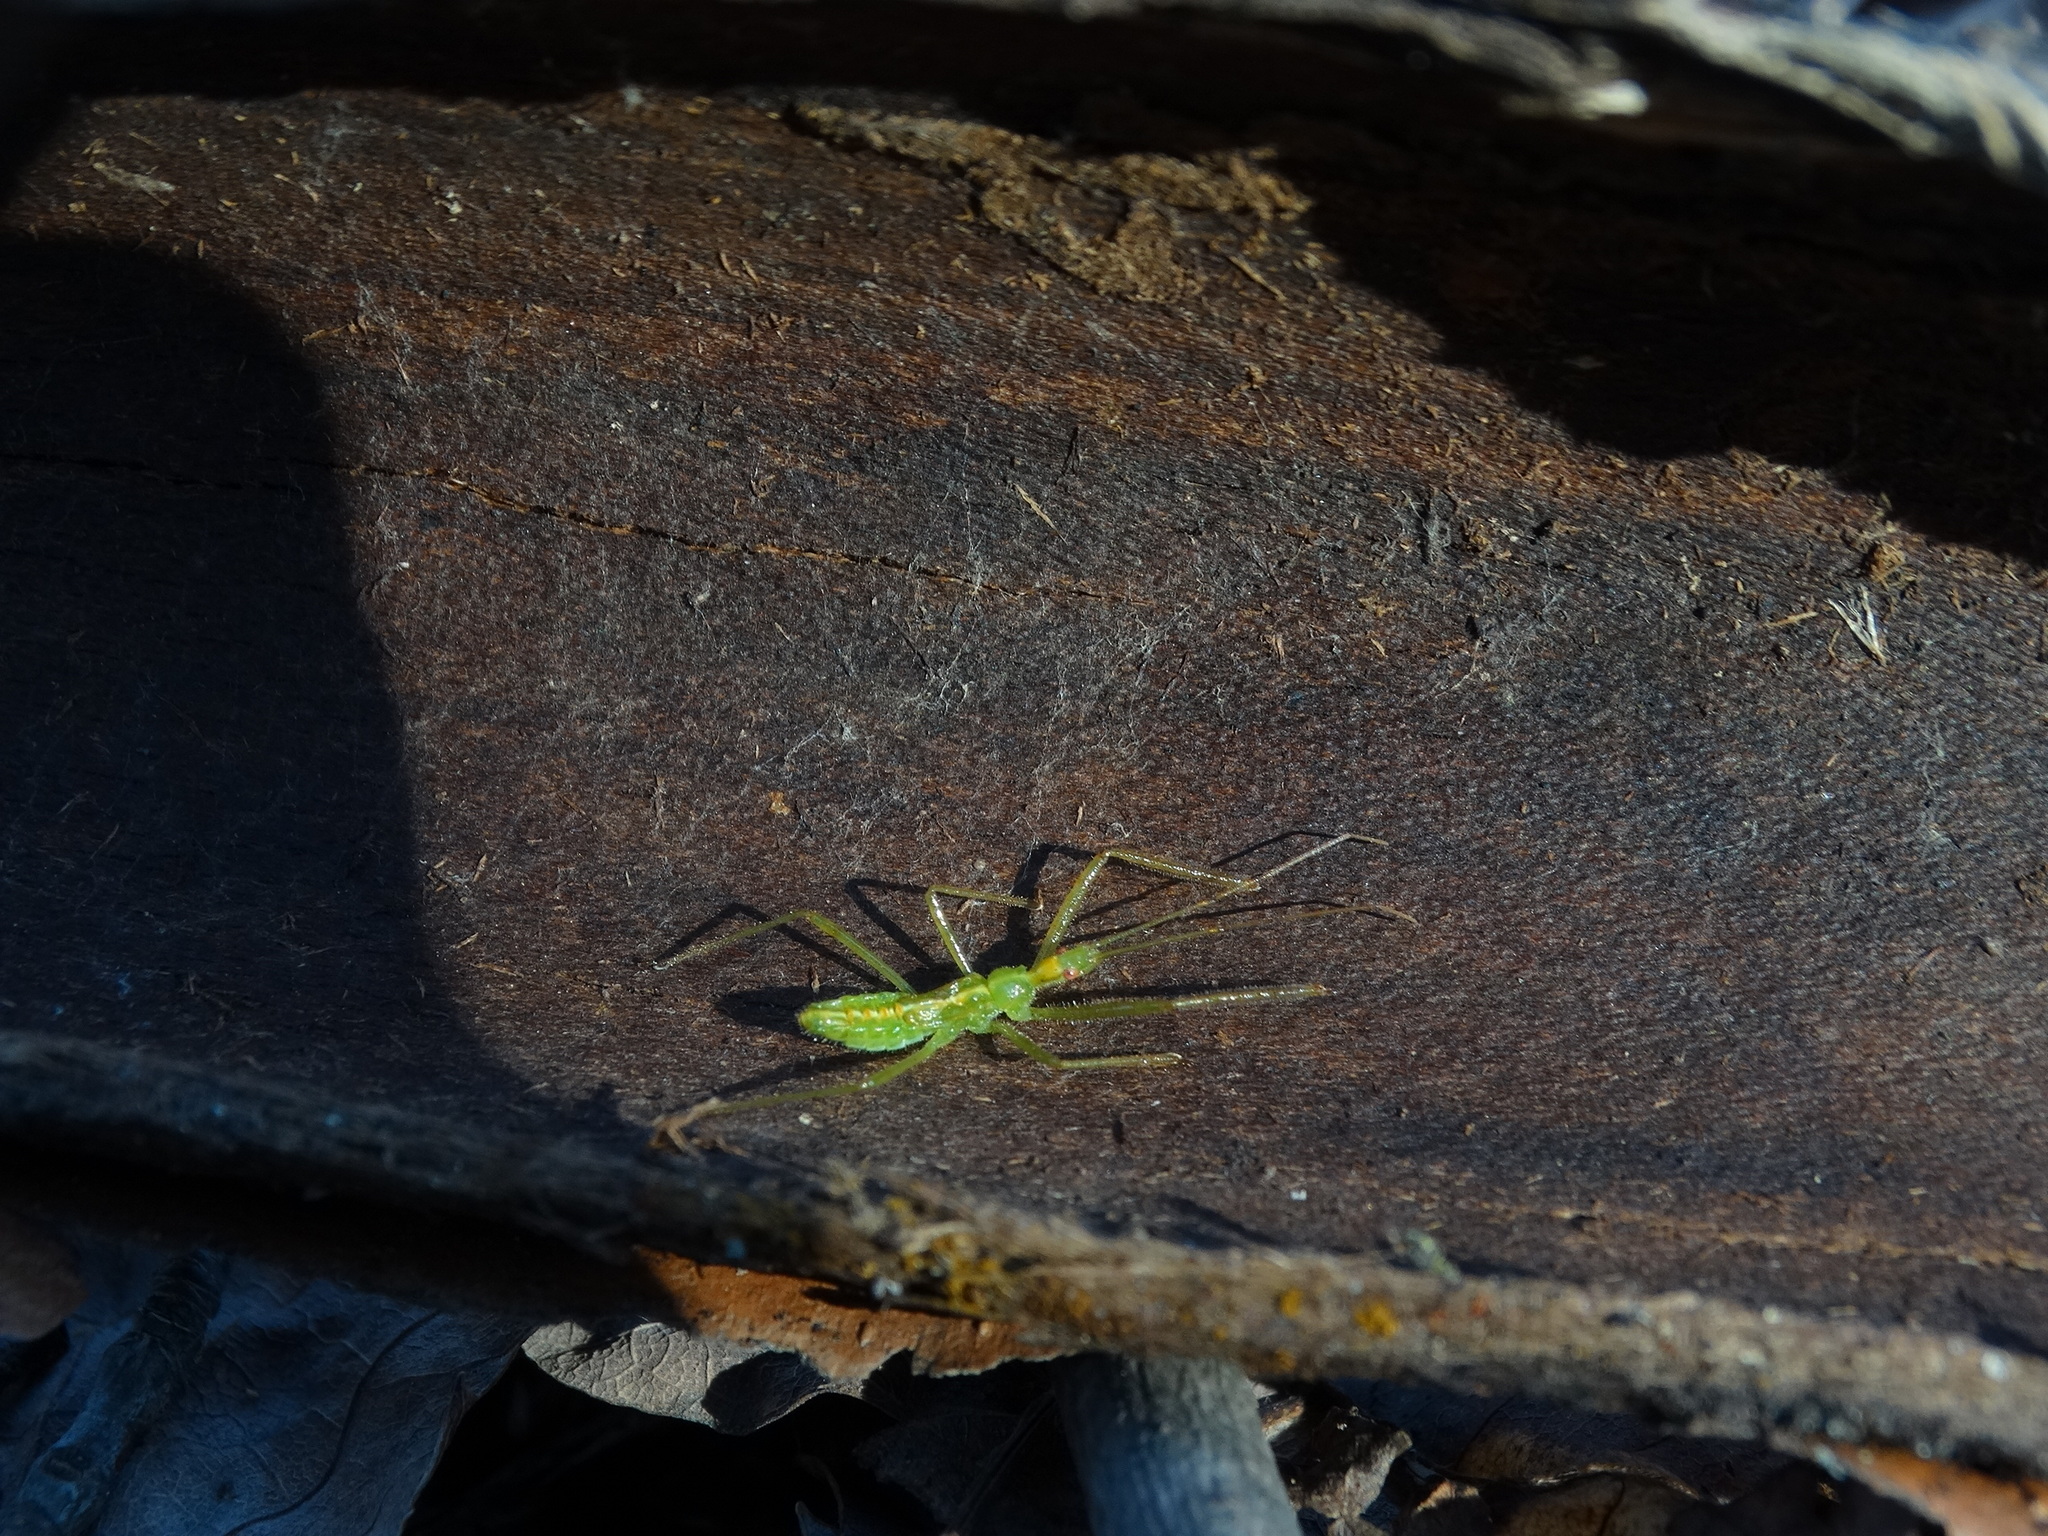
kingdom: Animalia
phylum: Arthropoda
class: Insecta
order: Hemiptera
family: Reduviidae
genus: Zelus
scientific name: Zelus luridus
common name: Pale green assassin bug
